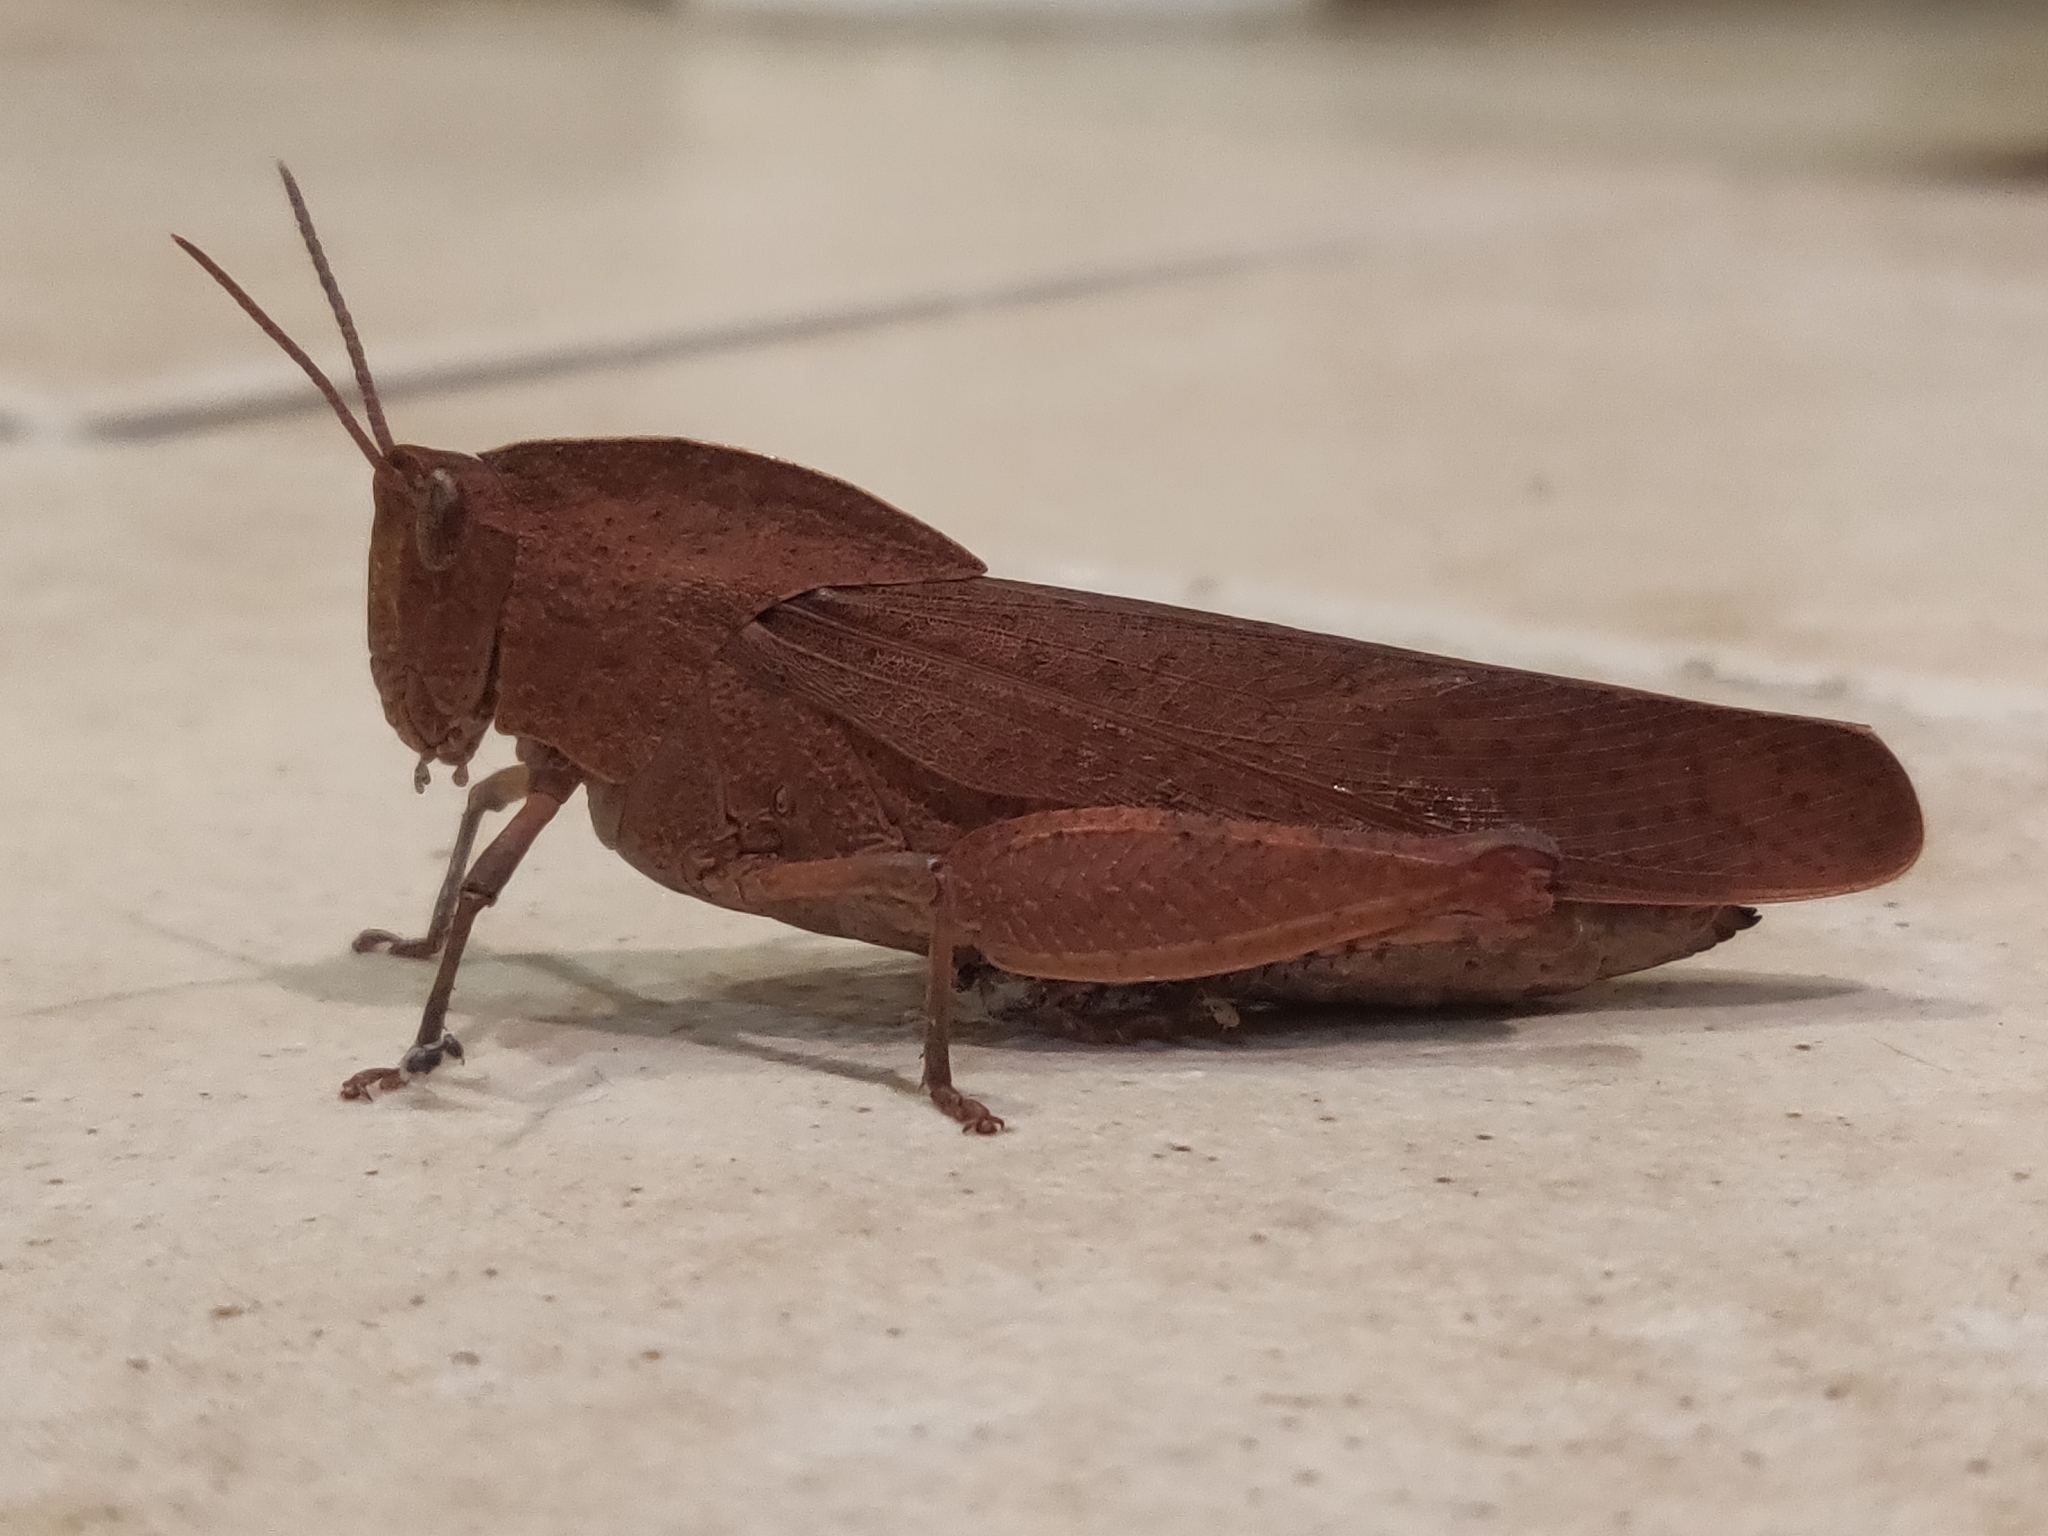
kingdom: Animalia
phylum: Arthropoda
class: Insecta
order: Orthoptera
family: Acrididae
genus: Goniaea
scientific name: Goniaea australasiae
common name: Gumleaf grasshopper
